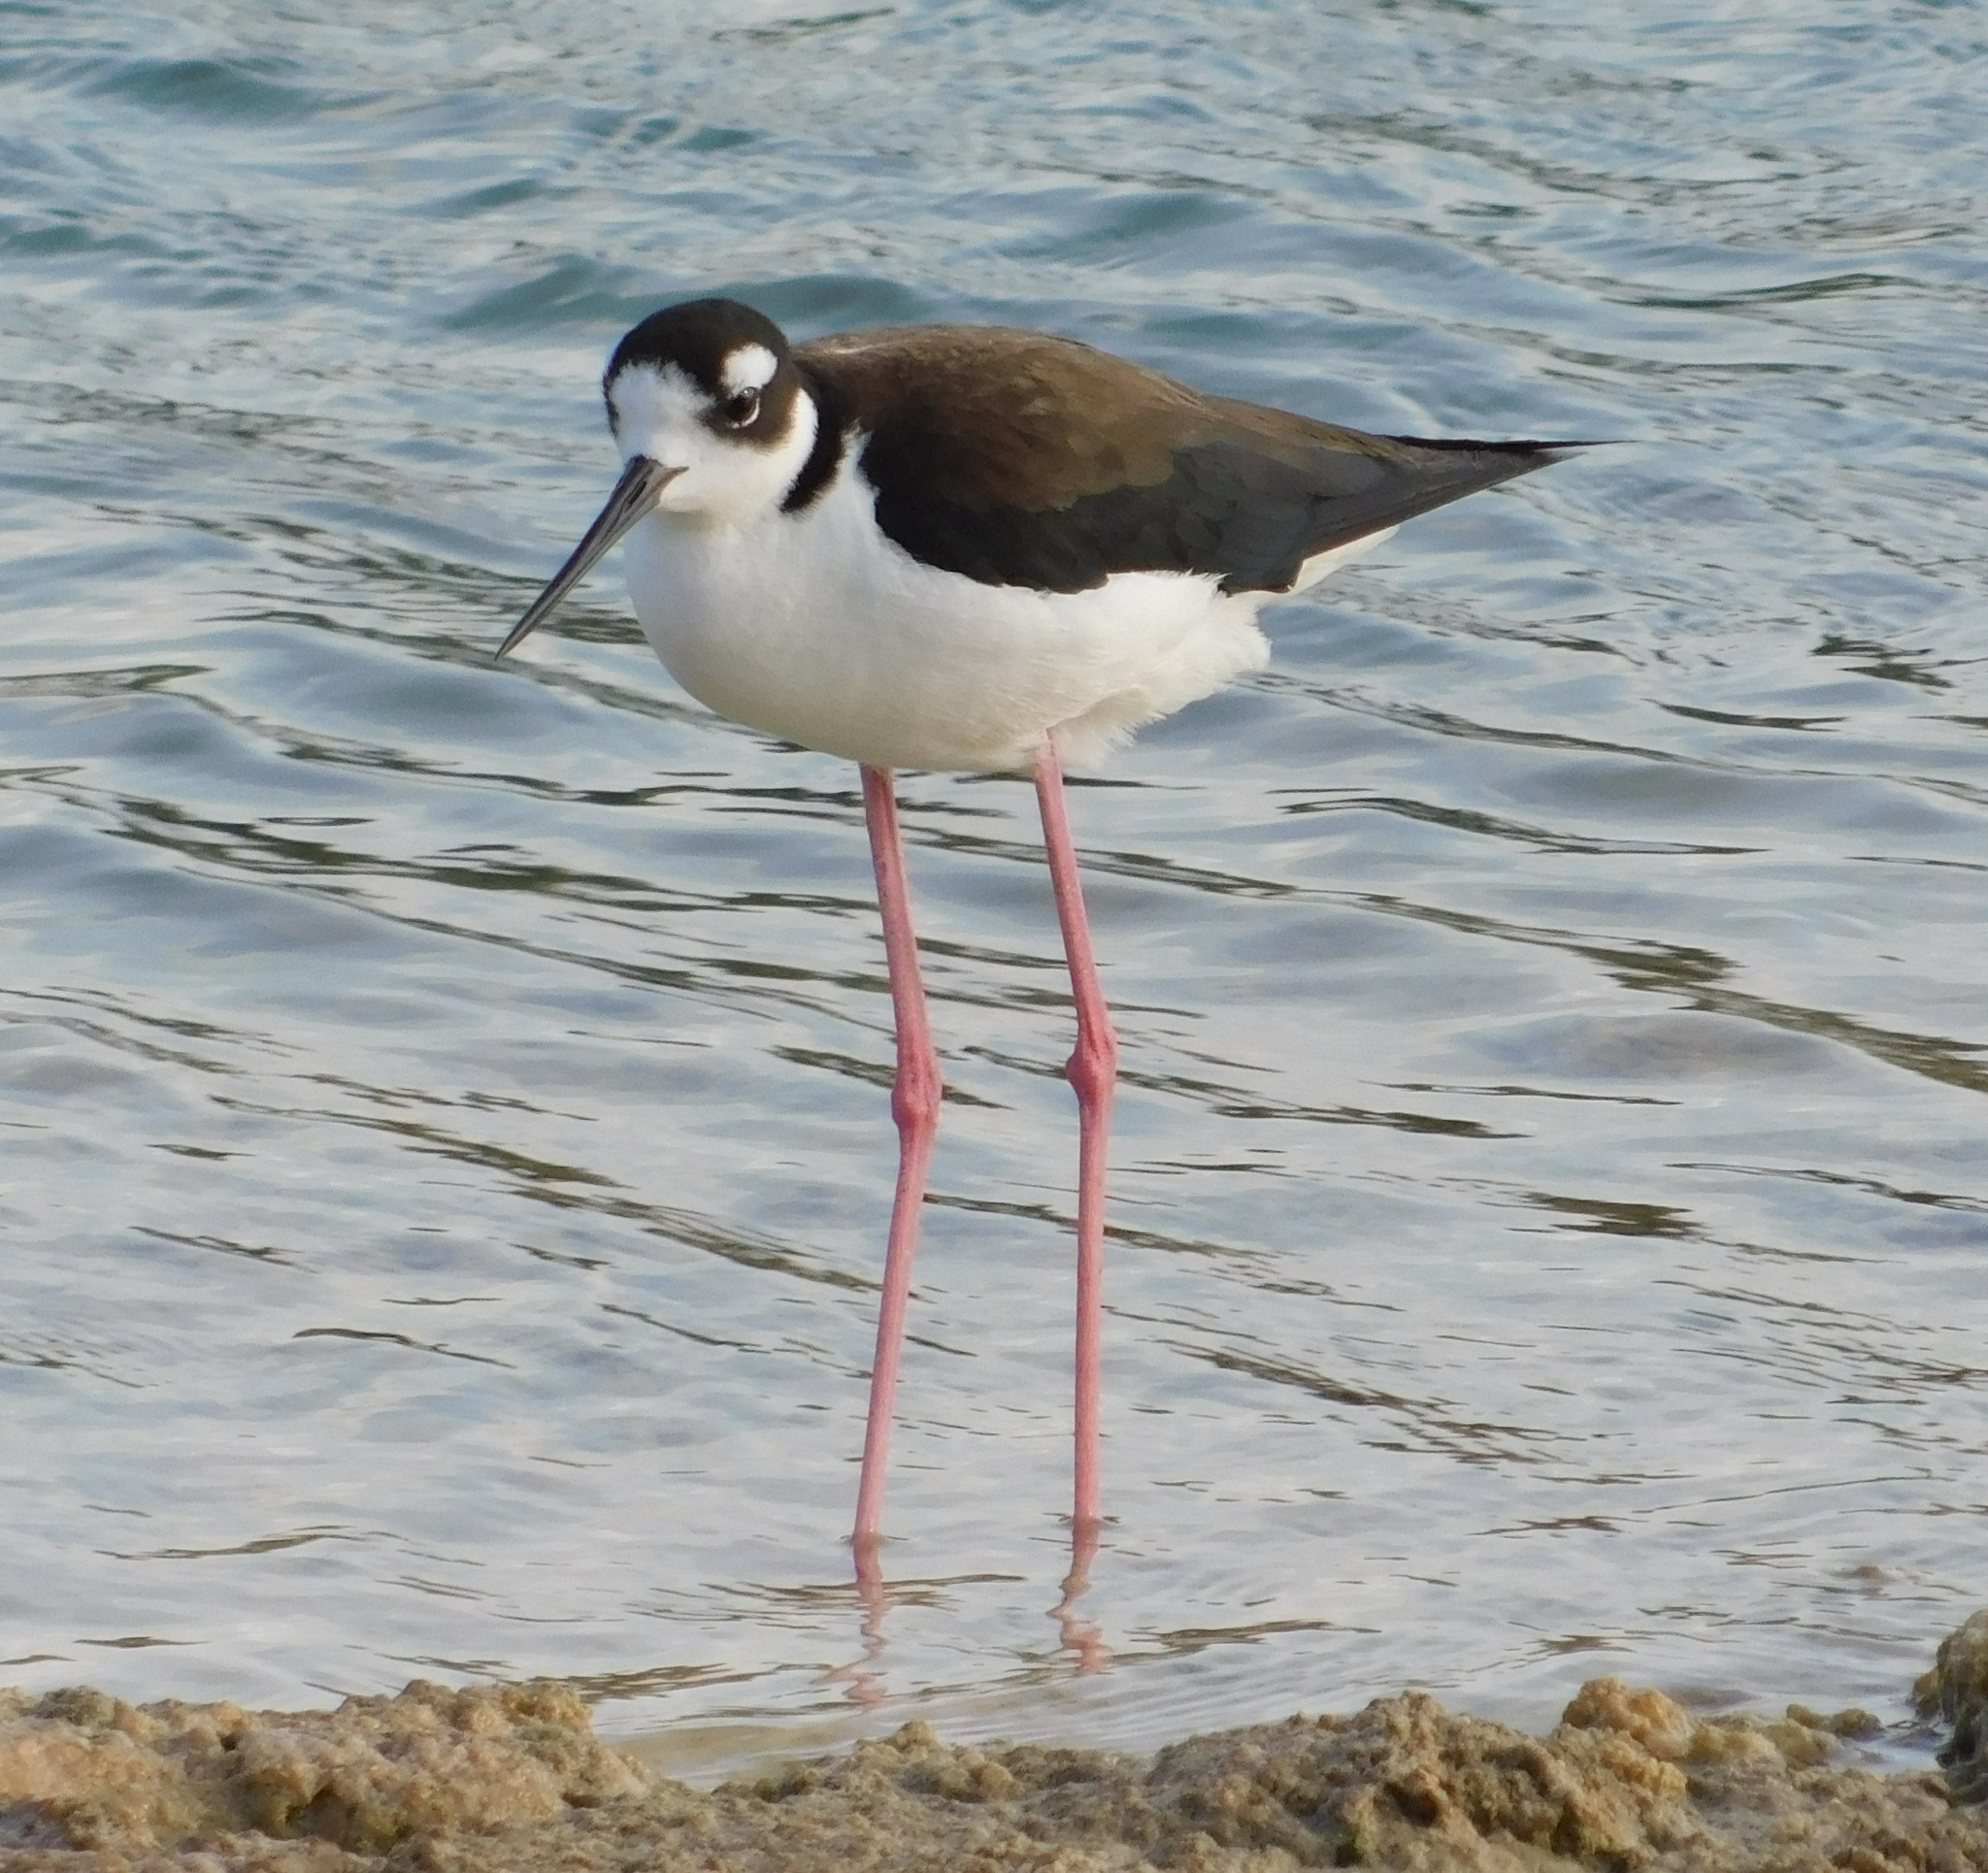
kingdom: Animalia
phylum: Chordata
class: Aves
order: Charadriiformes
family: Recurvirostridae
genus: Himantopus
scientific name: Himantopus mexicanus
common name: Black-necked stilt
